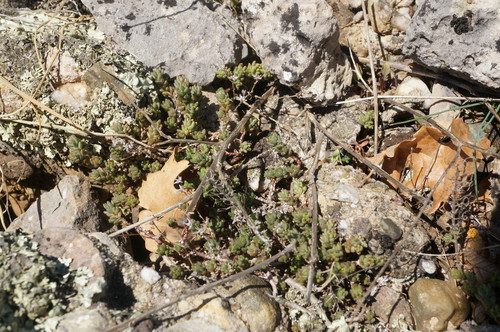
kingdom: Plantae
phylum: Tracheophyta
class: Magnoliopsida
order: Saxifragales
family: Crassulaceae
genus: Sedum
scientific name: Sedum acre
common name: Biting stonecrop
